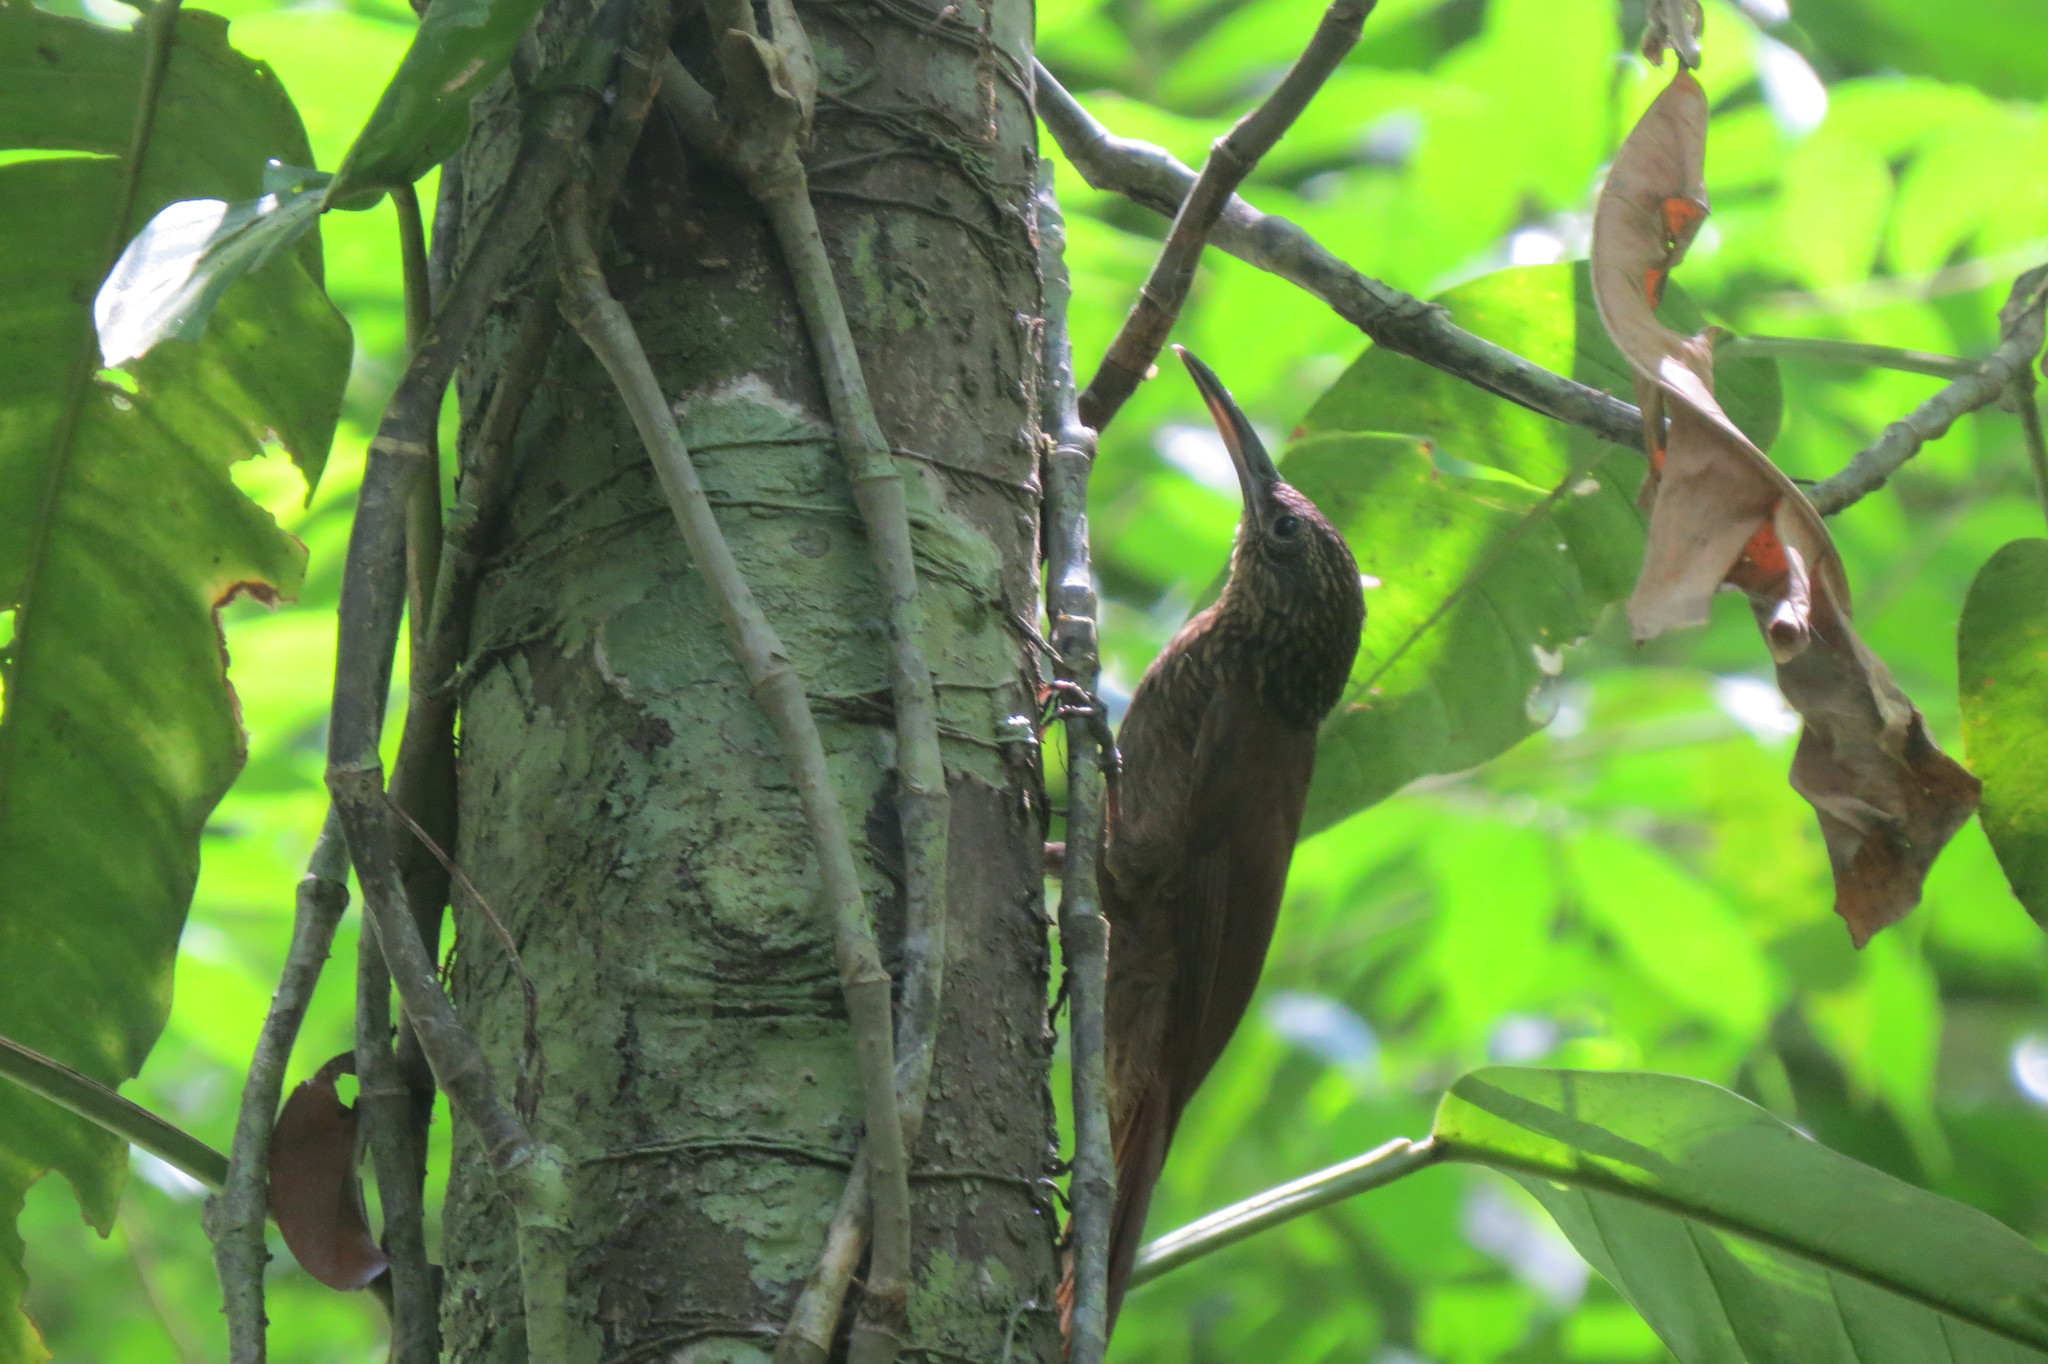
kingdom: Animalia
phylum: Chordata
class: Aves
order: Passeriformes
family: Furnariidae
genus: Xiphorhynchus
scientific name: Xiphorhynchus susurrans
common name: Cocoa woodcreeper
